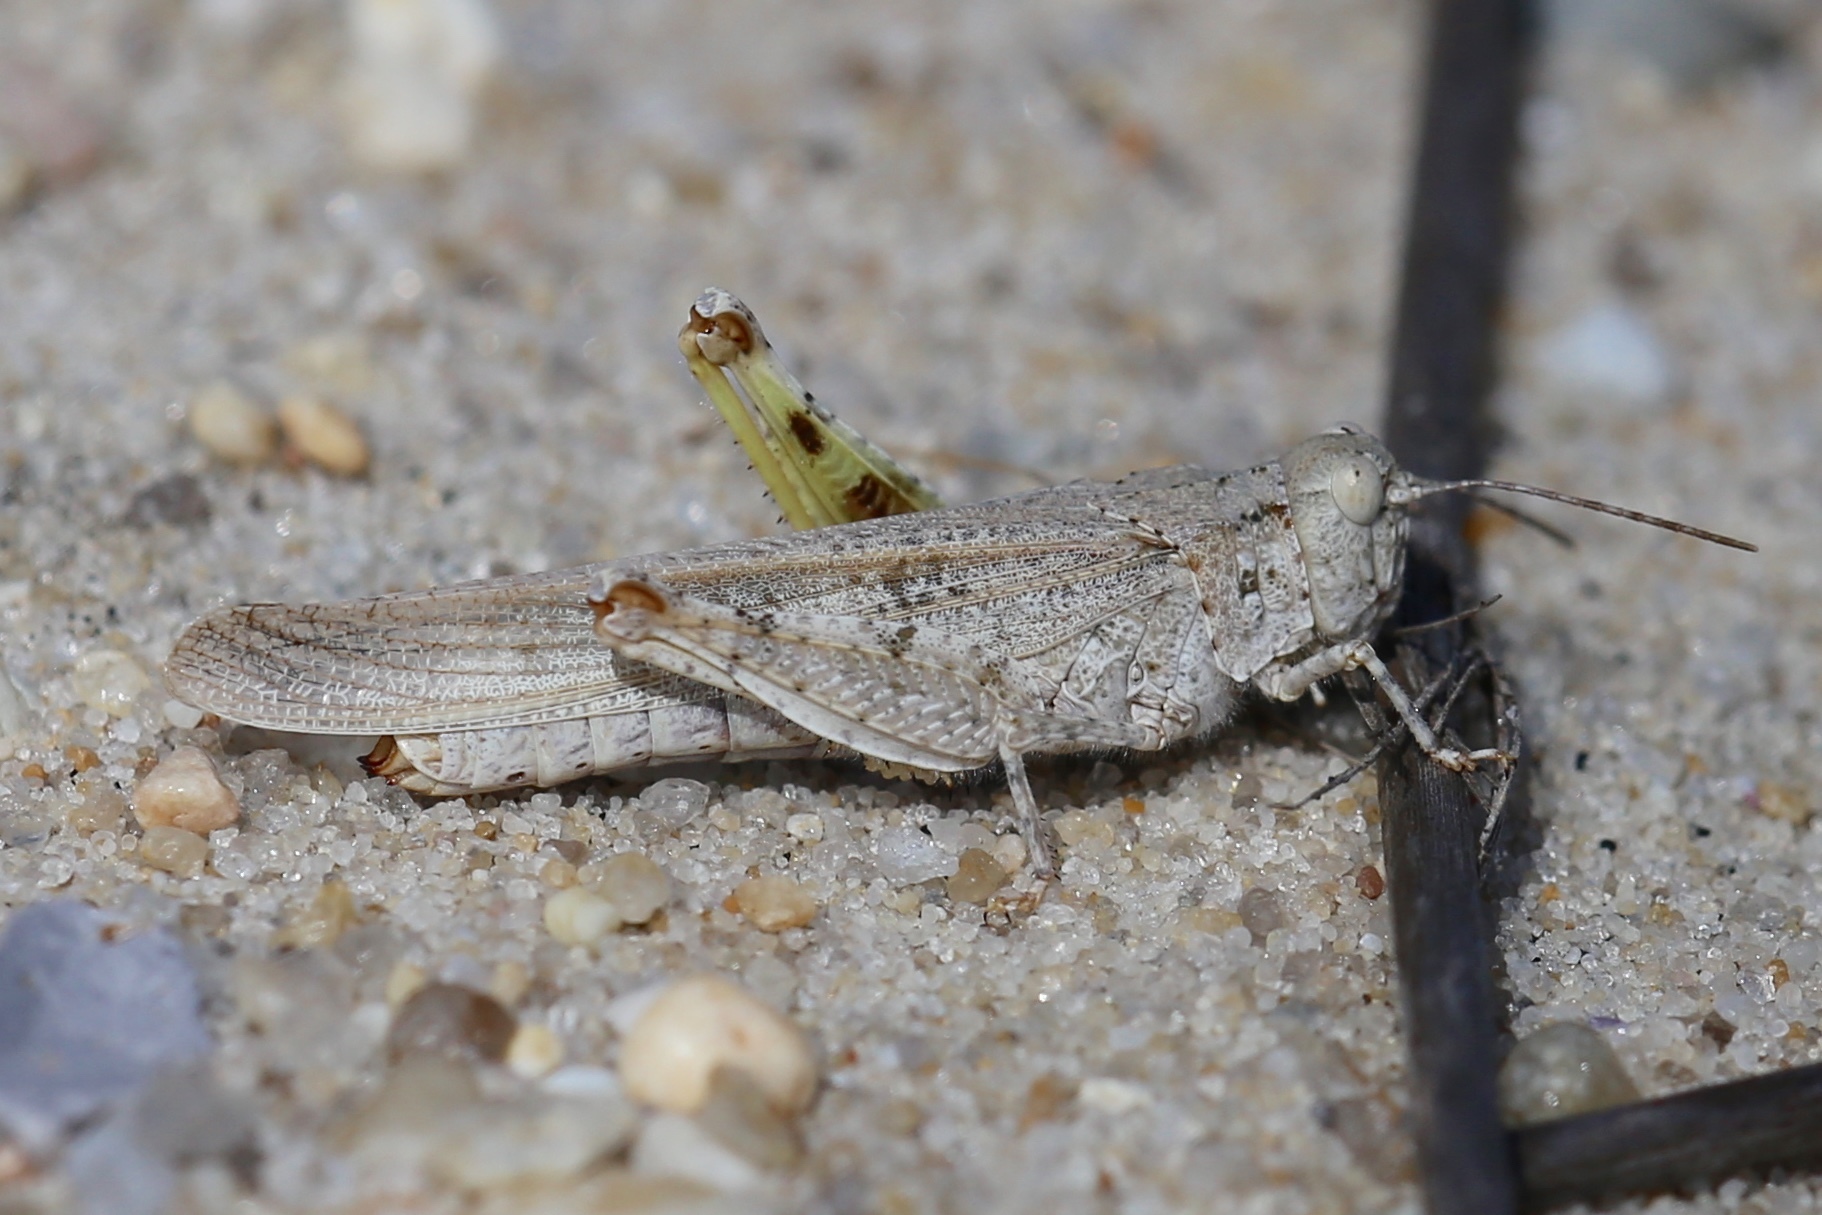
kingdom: Animalia
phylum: Arthropoda
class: Insecta
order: Orthoptera
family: Acrididae
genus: Trimerotropis
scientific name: Trimerotropis maritima
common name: Seaside locust
